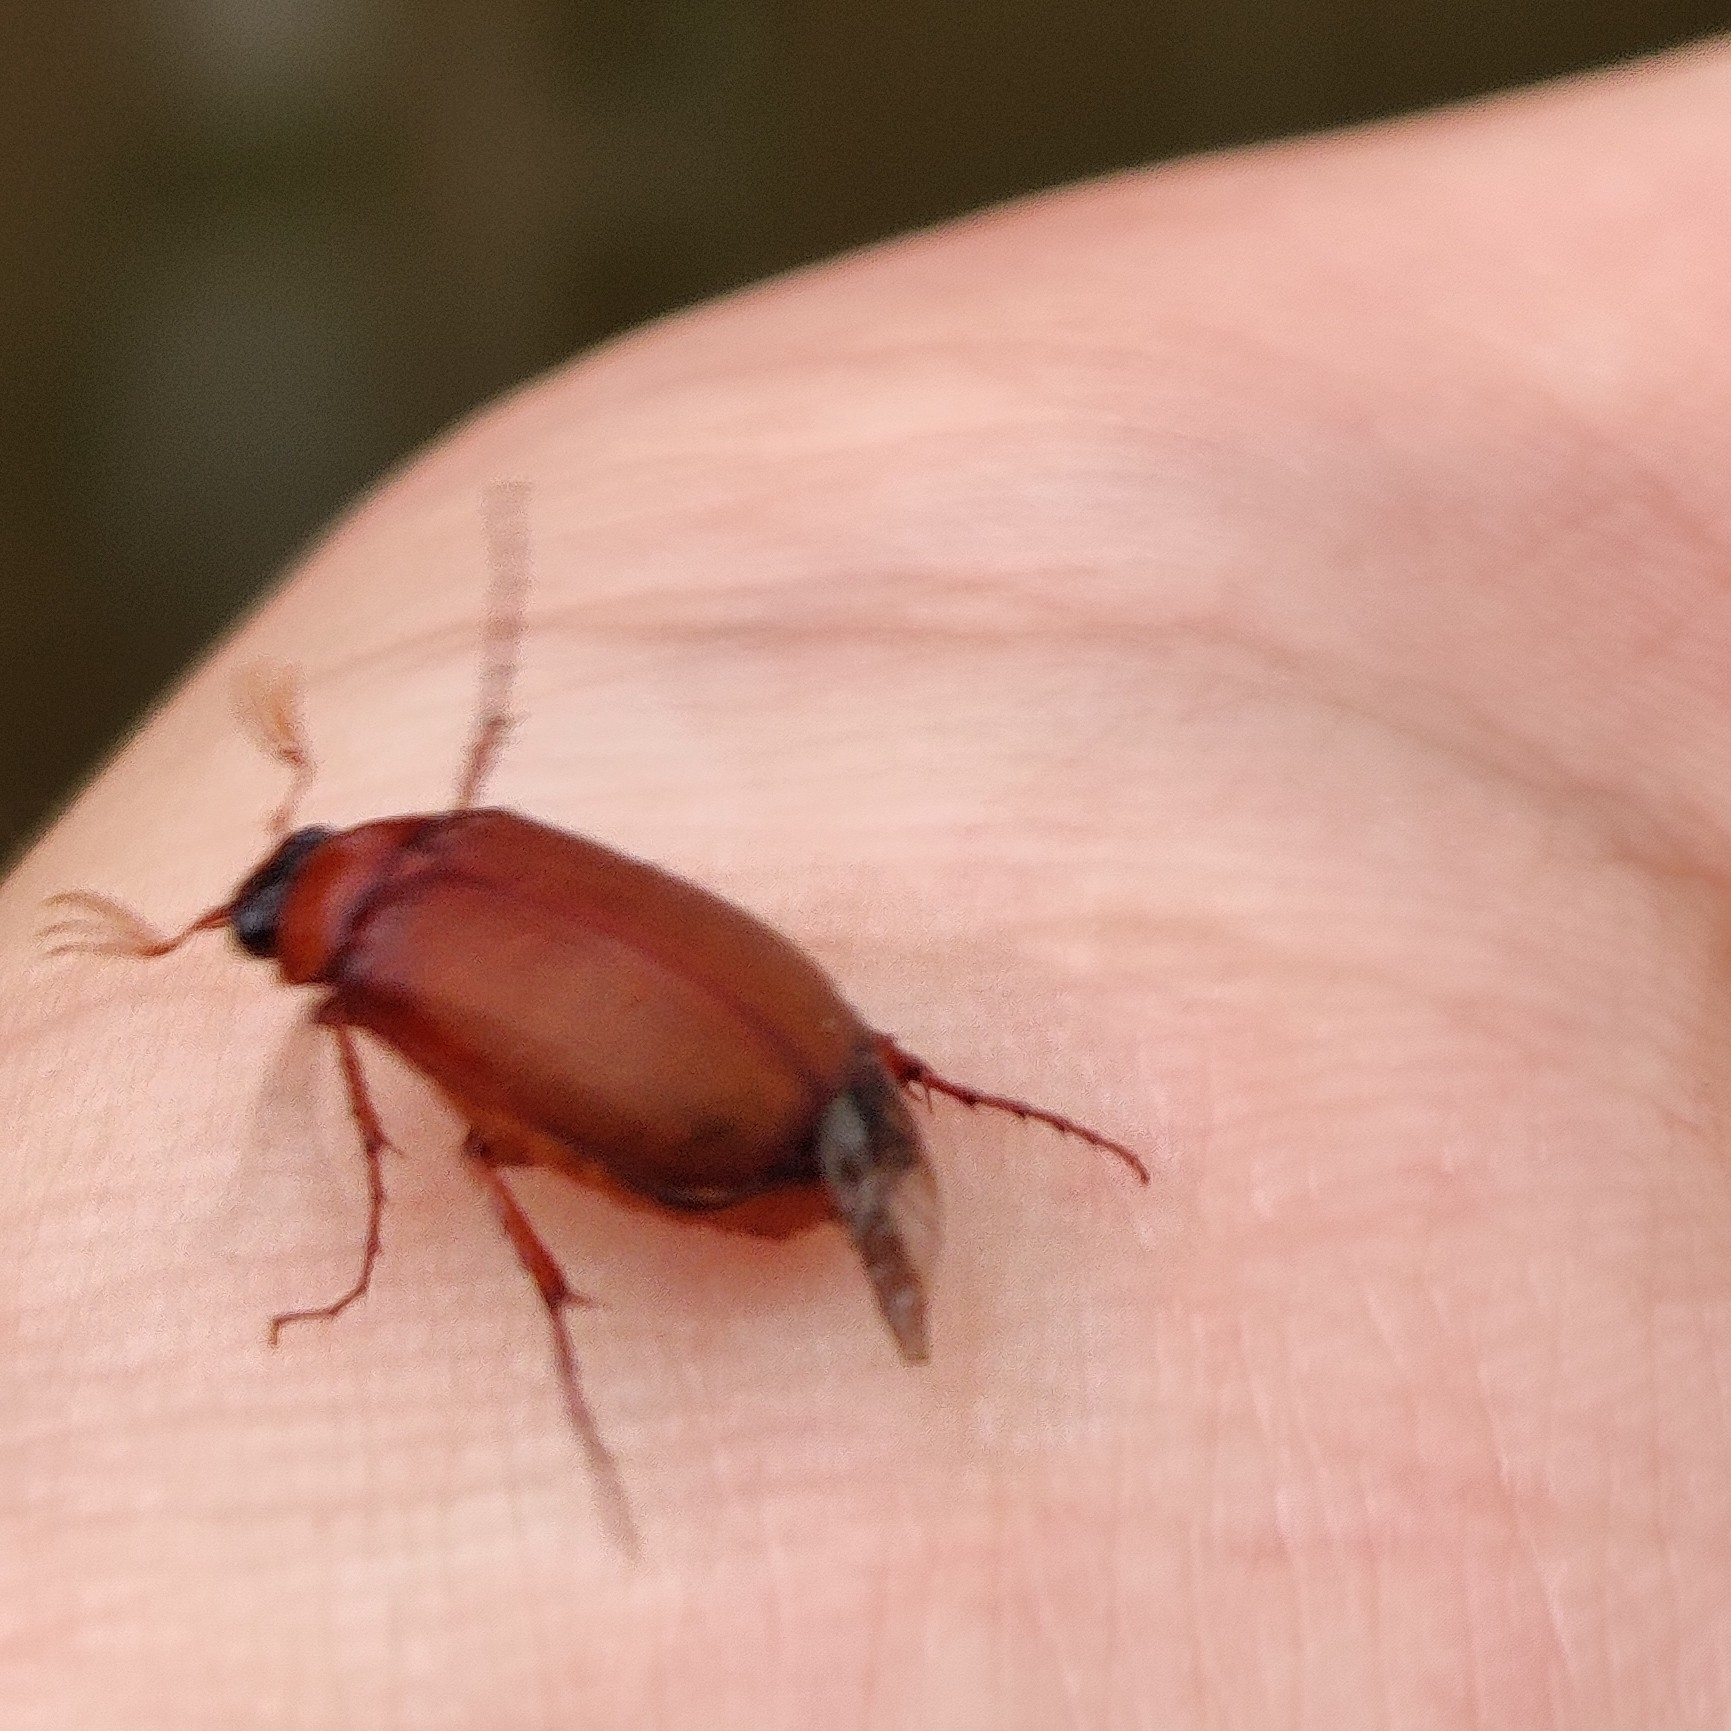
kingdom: Animalia
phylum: Arthropoda
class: Insecta
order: Coleoptera
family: Scarabaeidae
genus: Serica
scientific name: Serica brunnea
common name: Brown chafer
